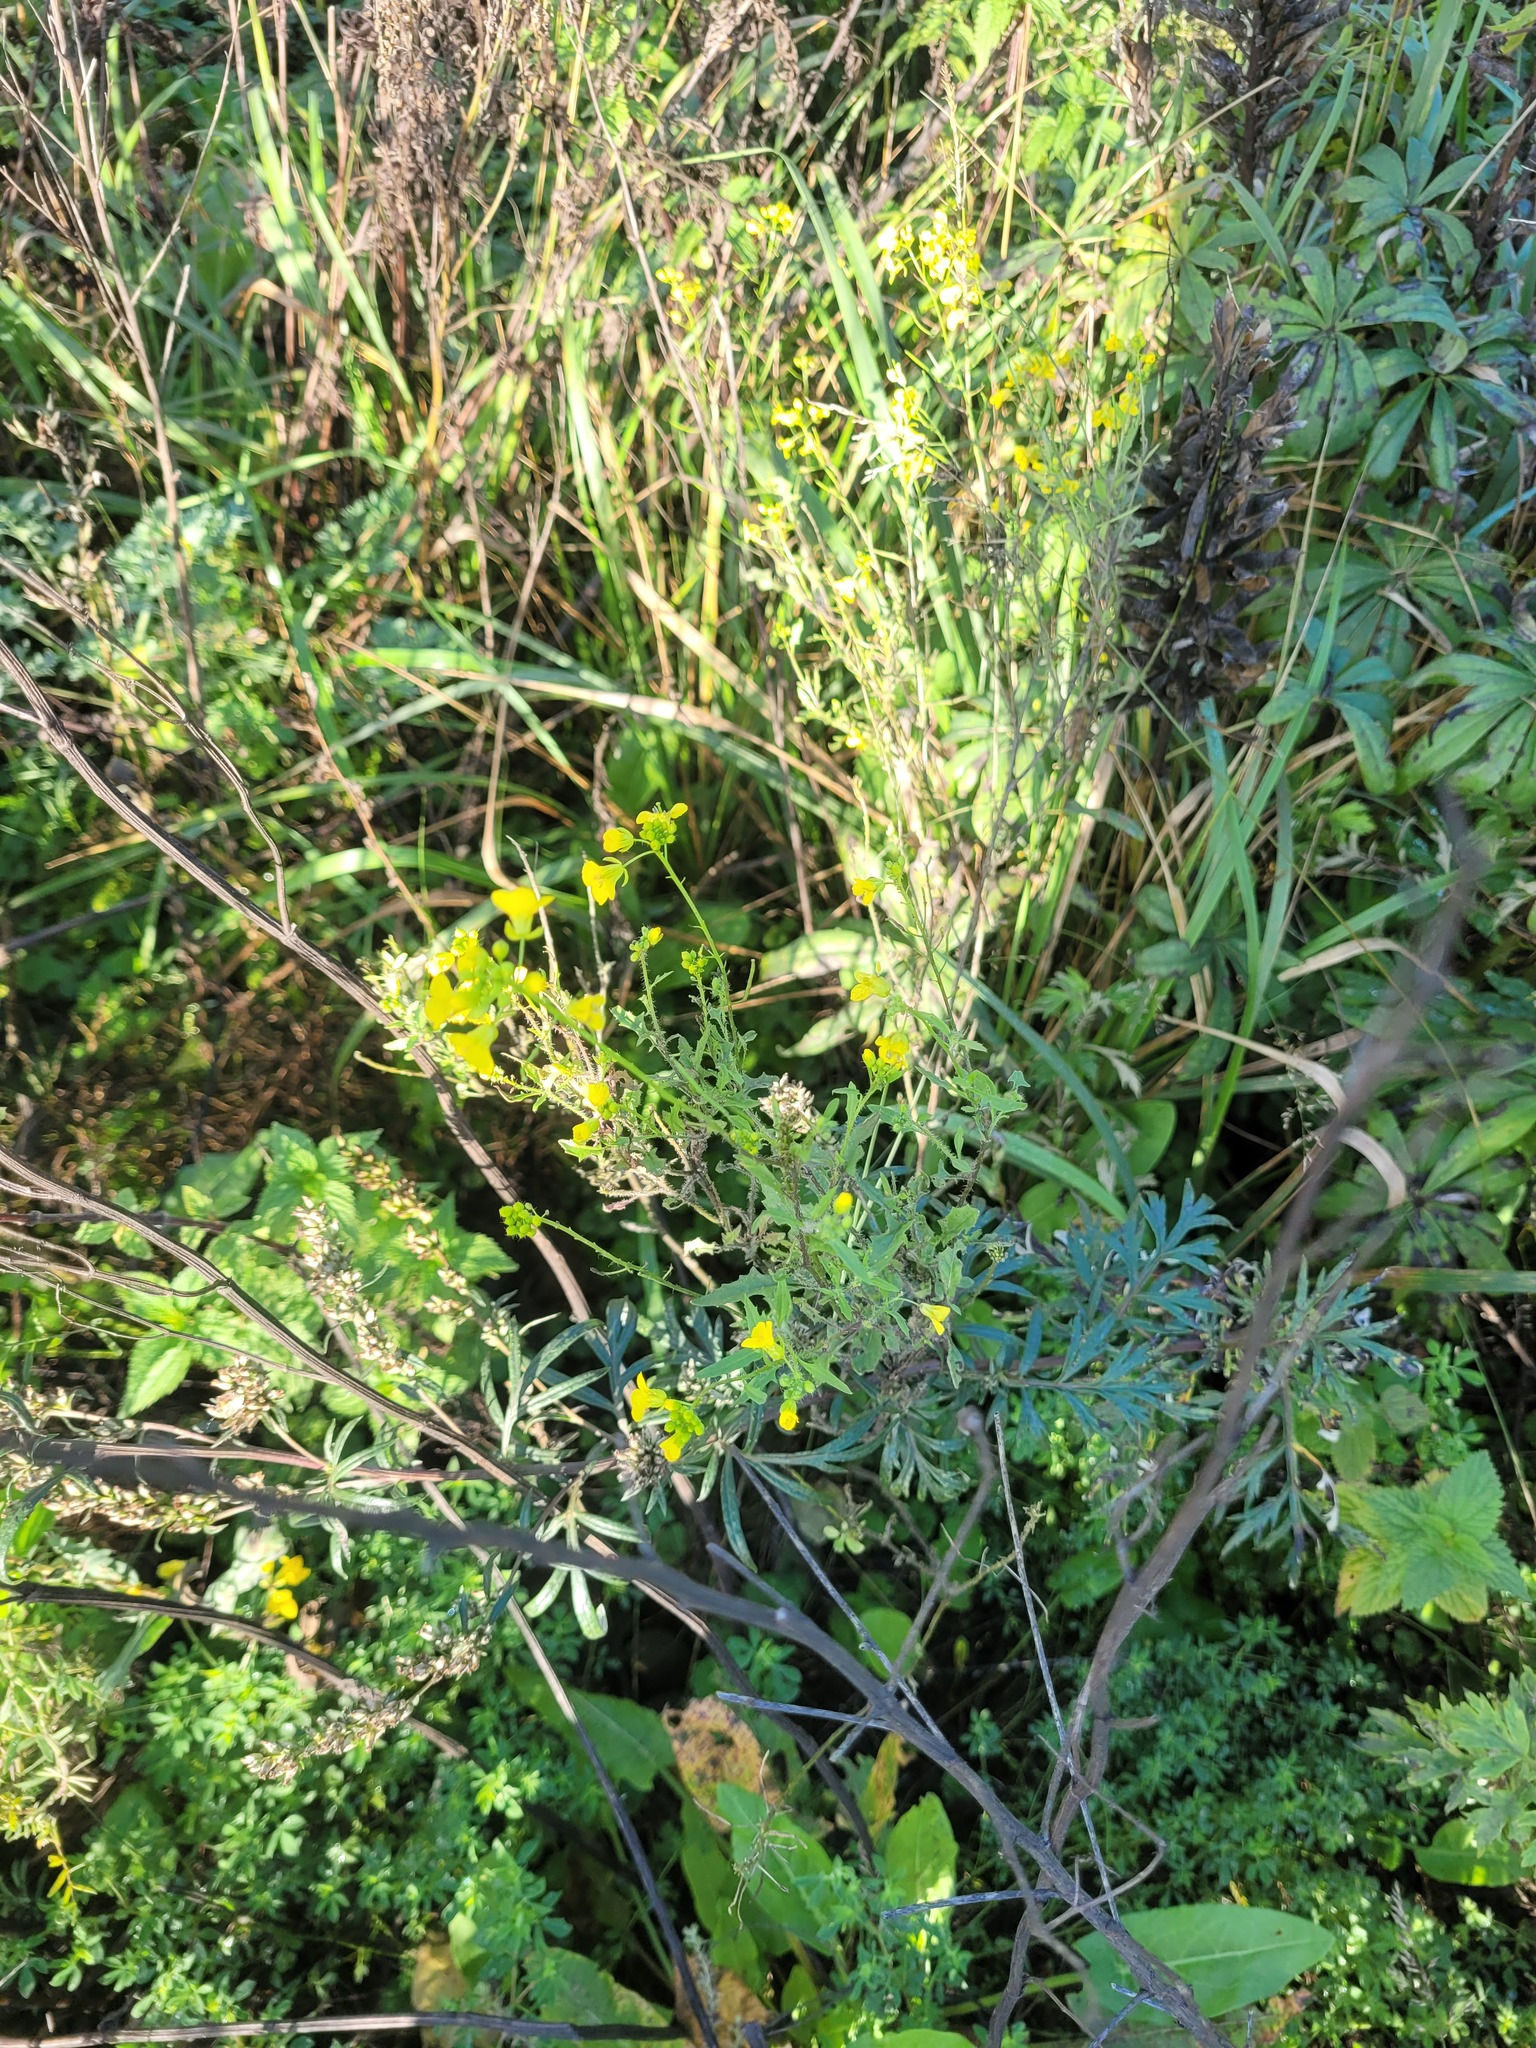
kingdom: Plantae
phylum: Tracheophyta
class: Magnoliopsida
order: Brassicales
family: Brassicaceae
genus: Sisymbrium
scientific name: Sisymbrium loeselii
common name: False london-rocket
